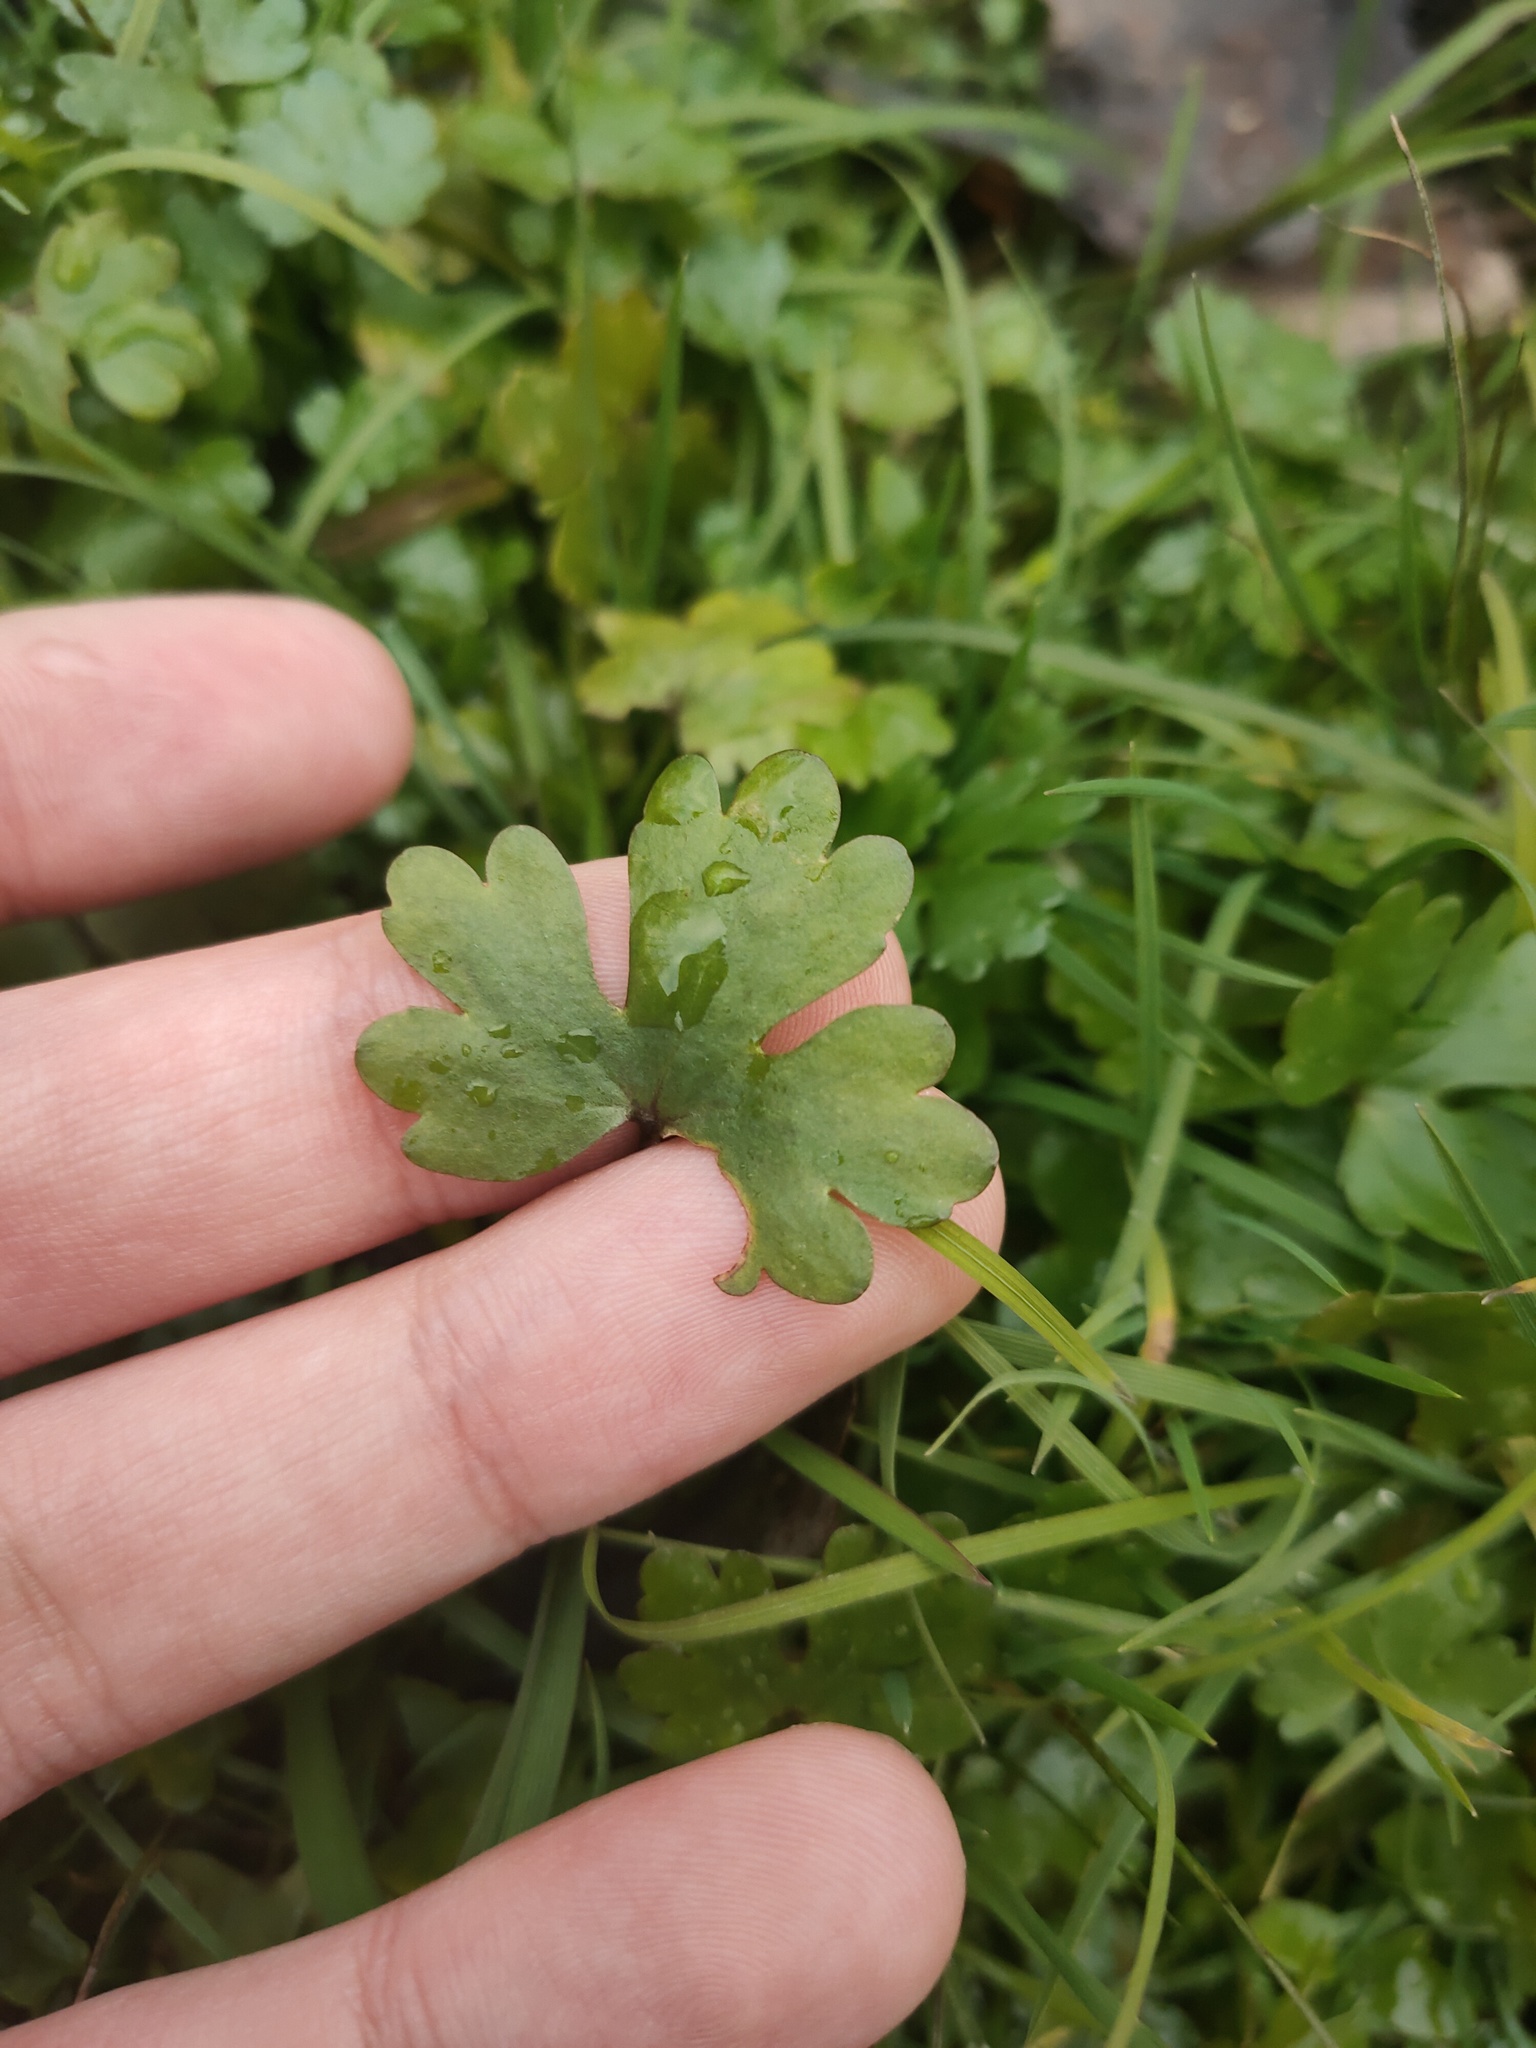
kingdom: Plantae
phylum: Tracheophyta
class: Magnoliopsida
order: Ranunculales
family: Ranunculaceae
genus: Ranunculus
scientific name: Ranunculus sceleratus
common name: Celery-leaved buttercup
